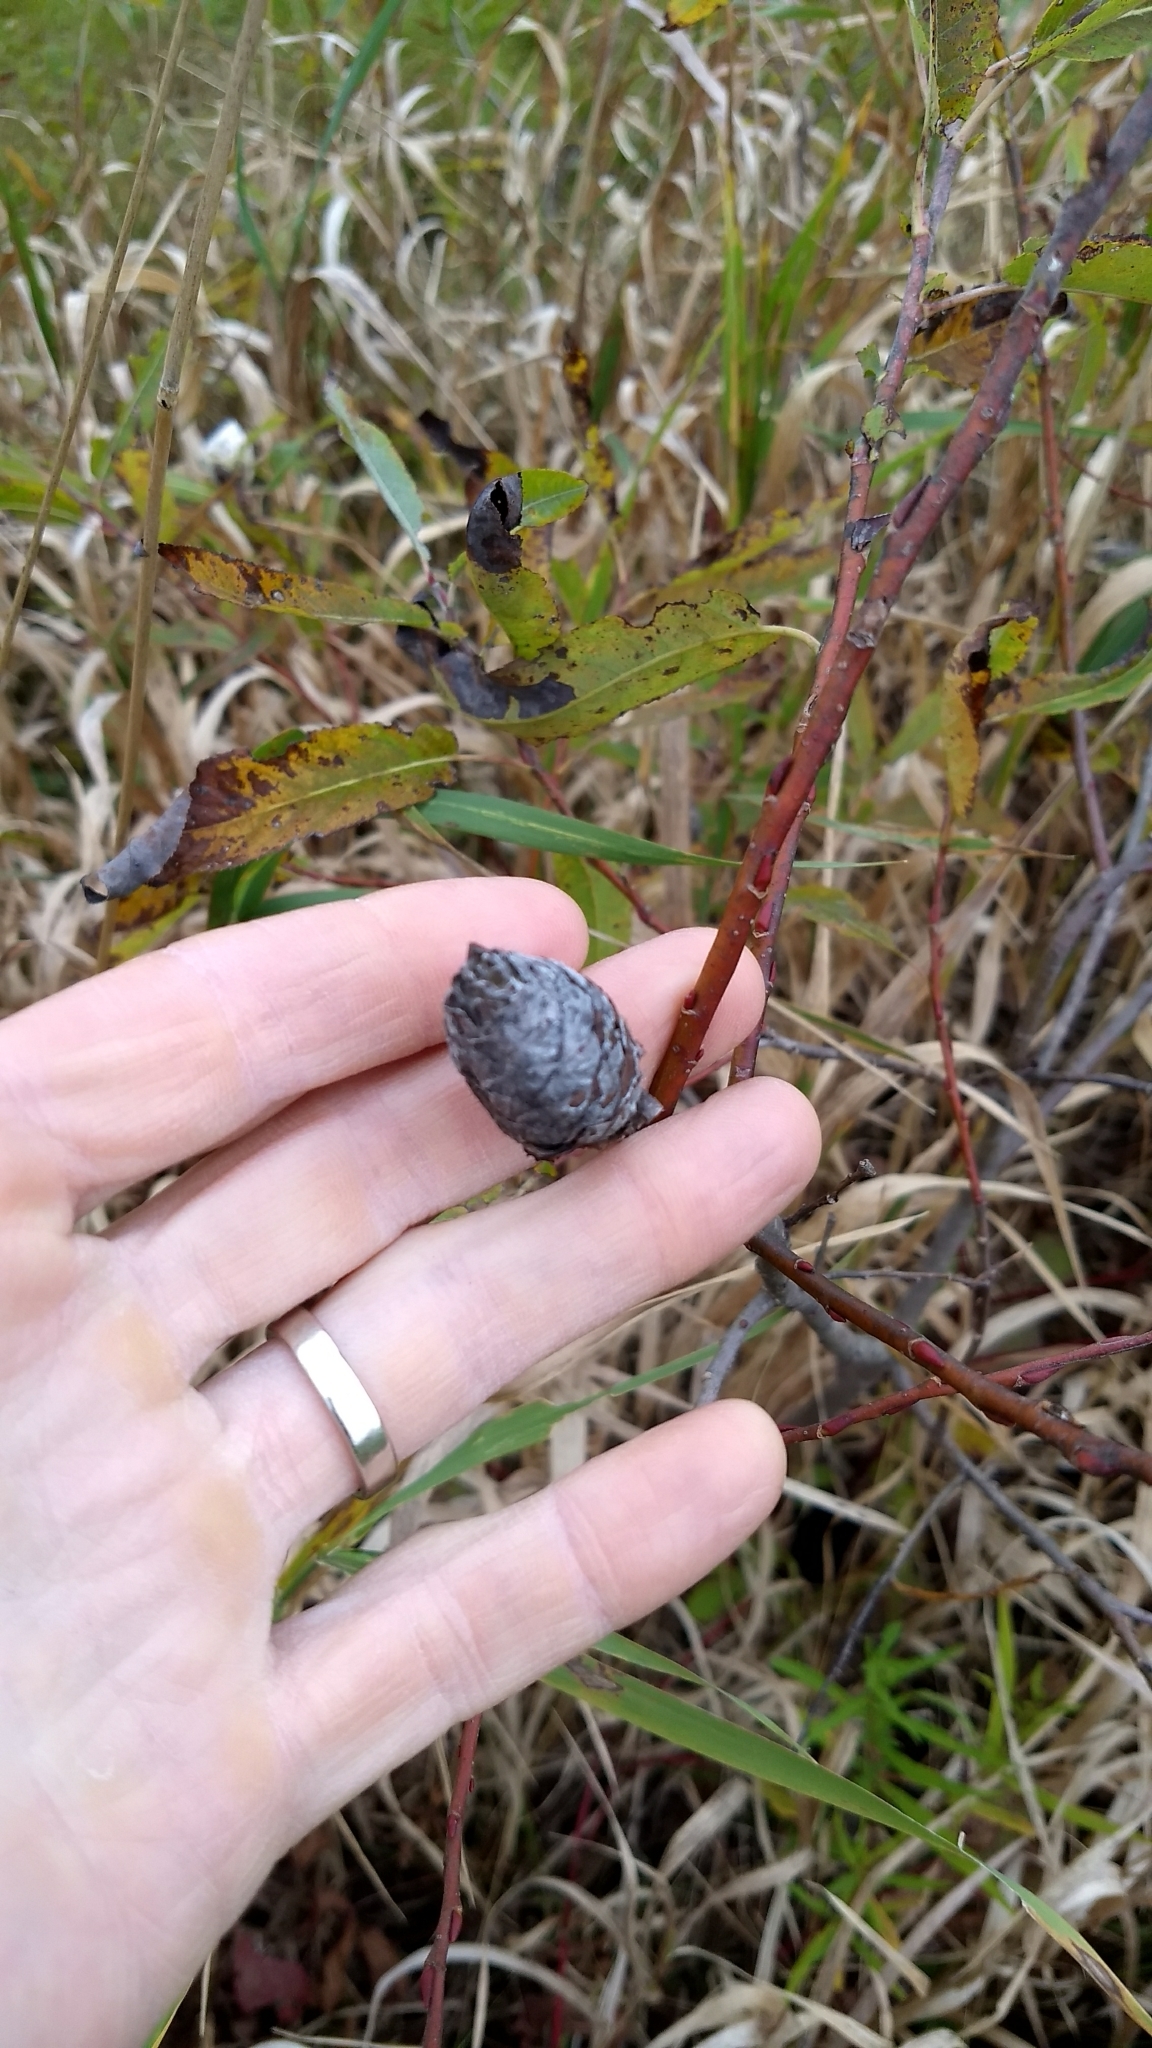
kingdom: Animalia
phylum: Arthropoda
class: Insecta
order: Diptera
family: Cecidomyiidae
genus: Rabdophaga
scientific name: Rabdophaga strobiloides
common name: Willow pinecone gall midge
